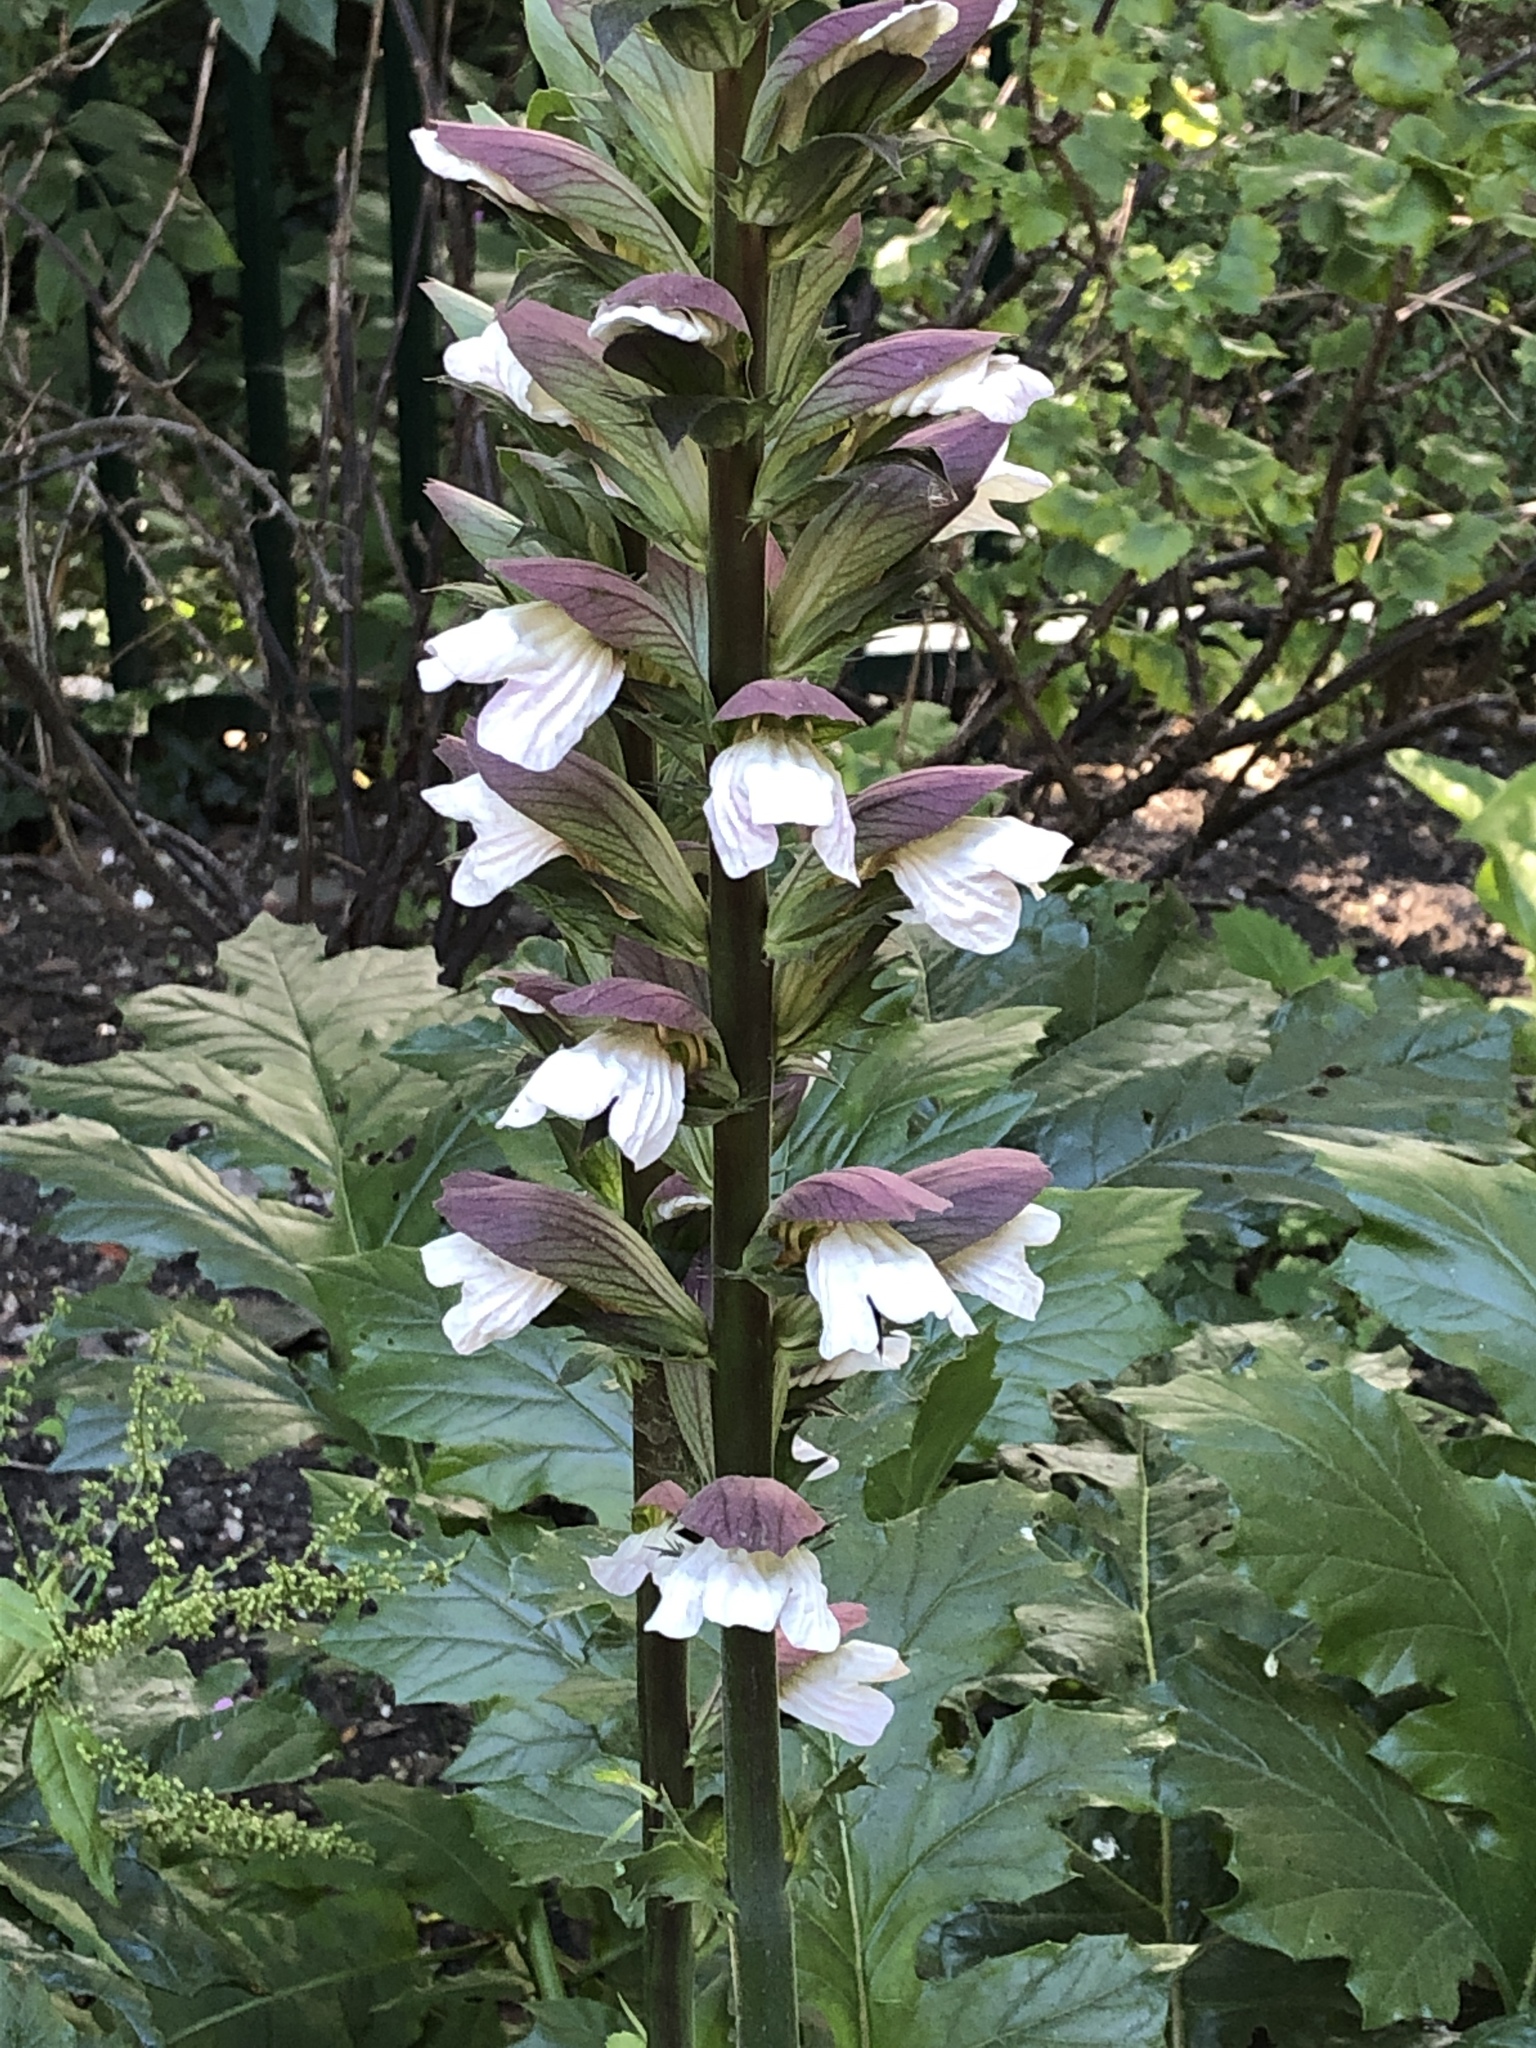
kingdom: Plantae
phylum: Tracheophyta
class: Magnoliopsida
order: Lamiales
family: Acanthaceae
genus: Acanthus
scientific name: Acanthus mollis
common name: Bear's-breech
